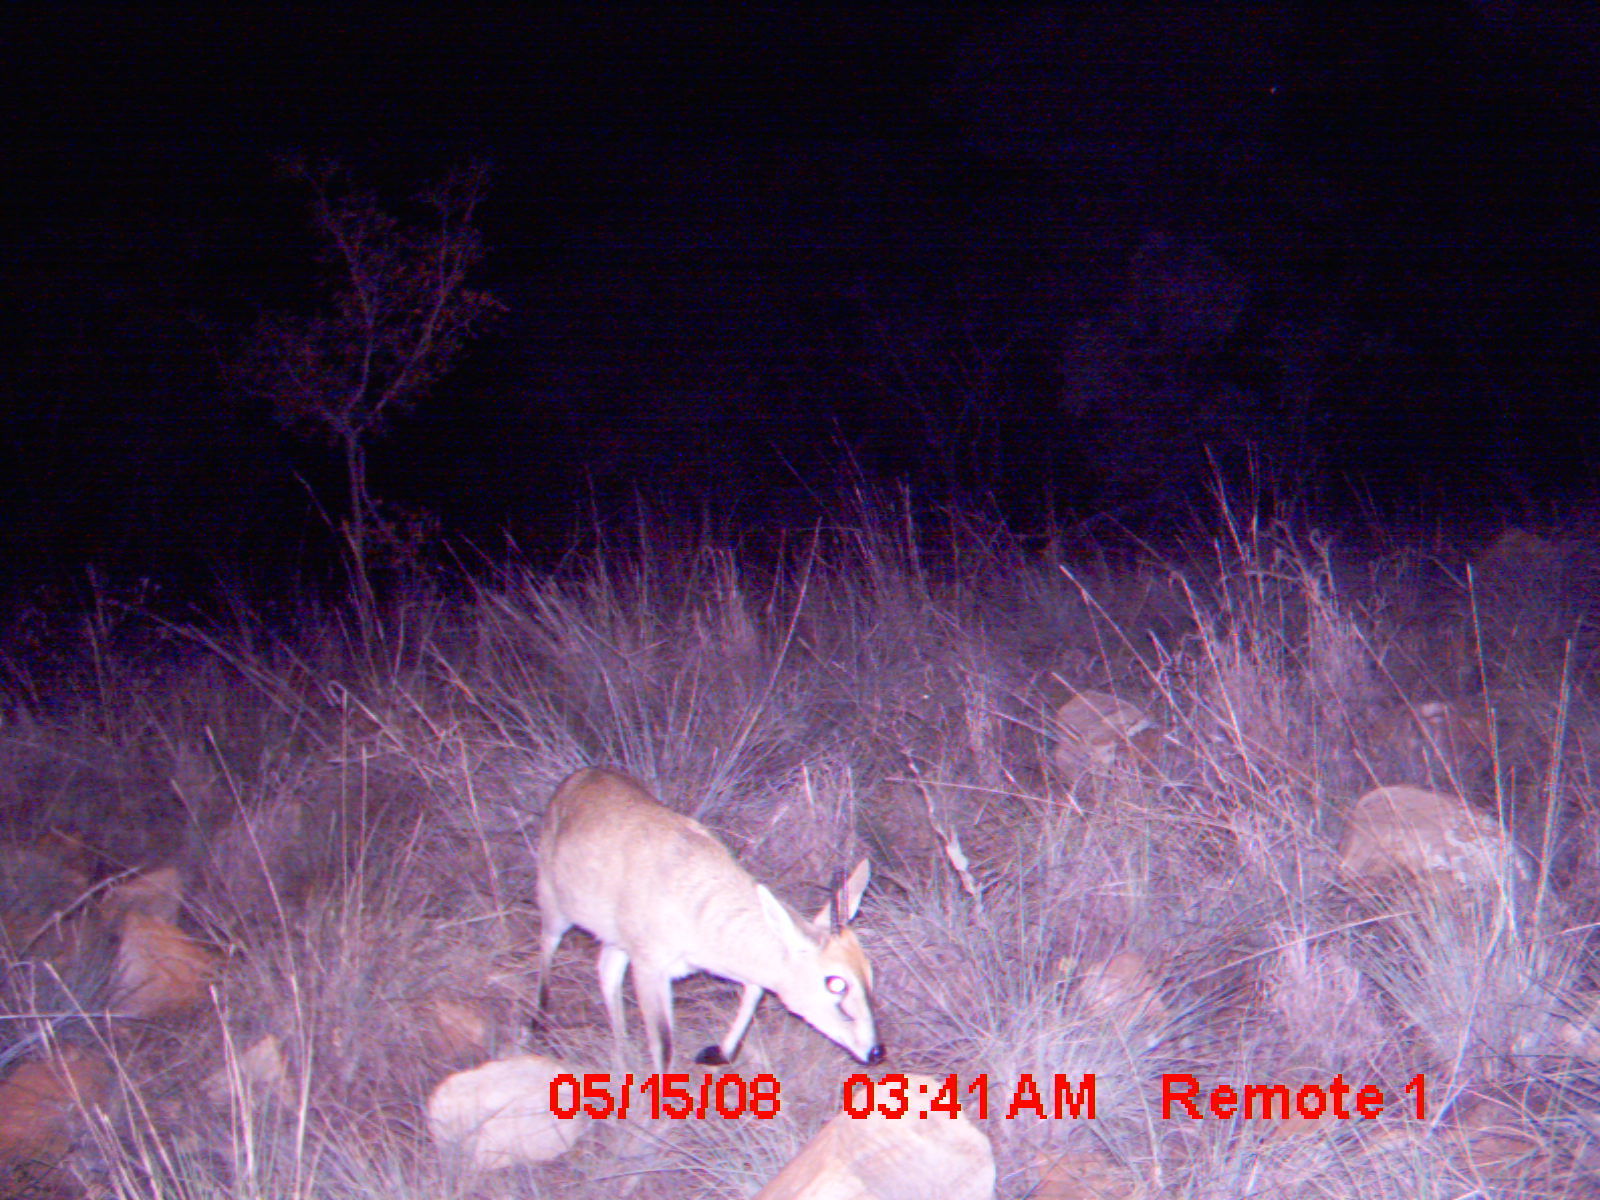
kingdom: Animalia
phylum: Chordata
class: Mammalia
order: Artiodactyla
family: Bovidae
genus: Sylvicapra
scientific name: Sylvicapra grimmia
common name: Bush duiker
